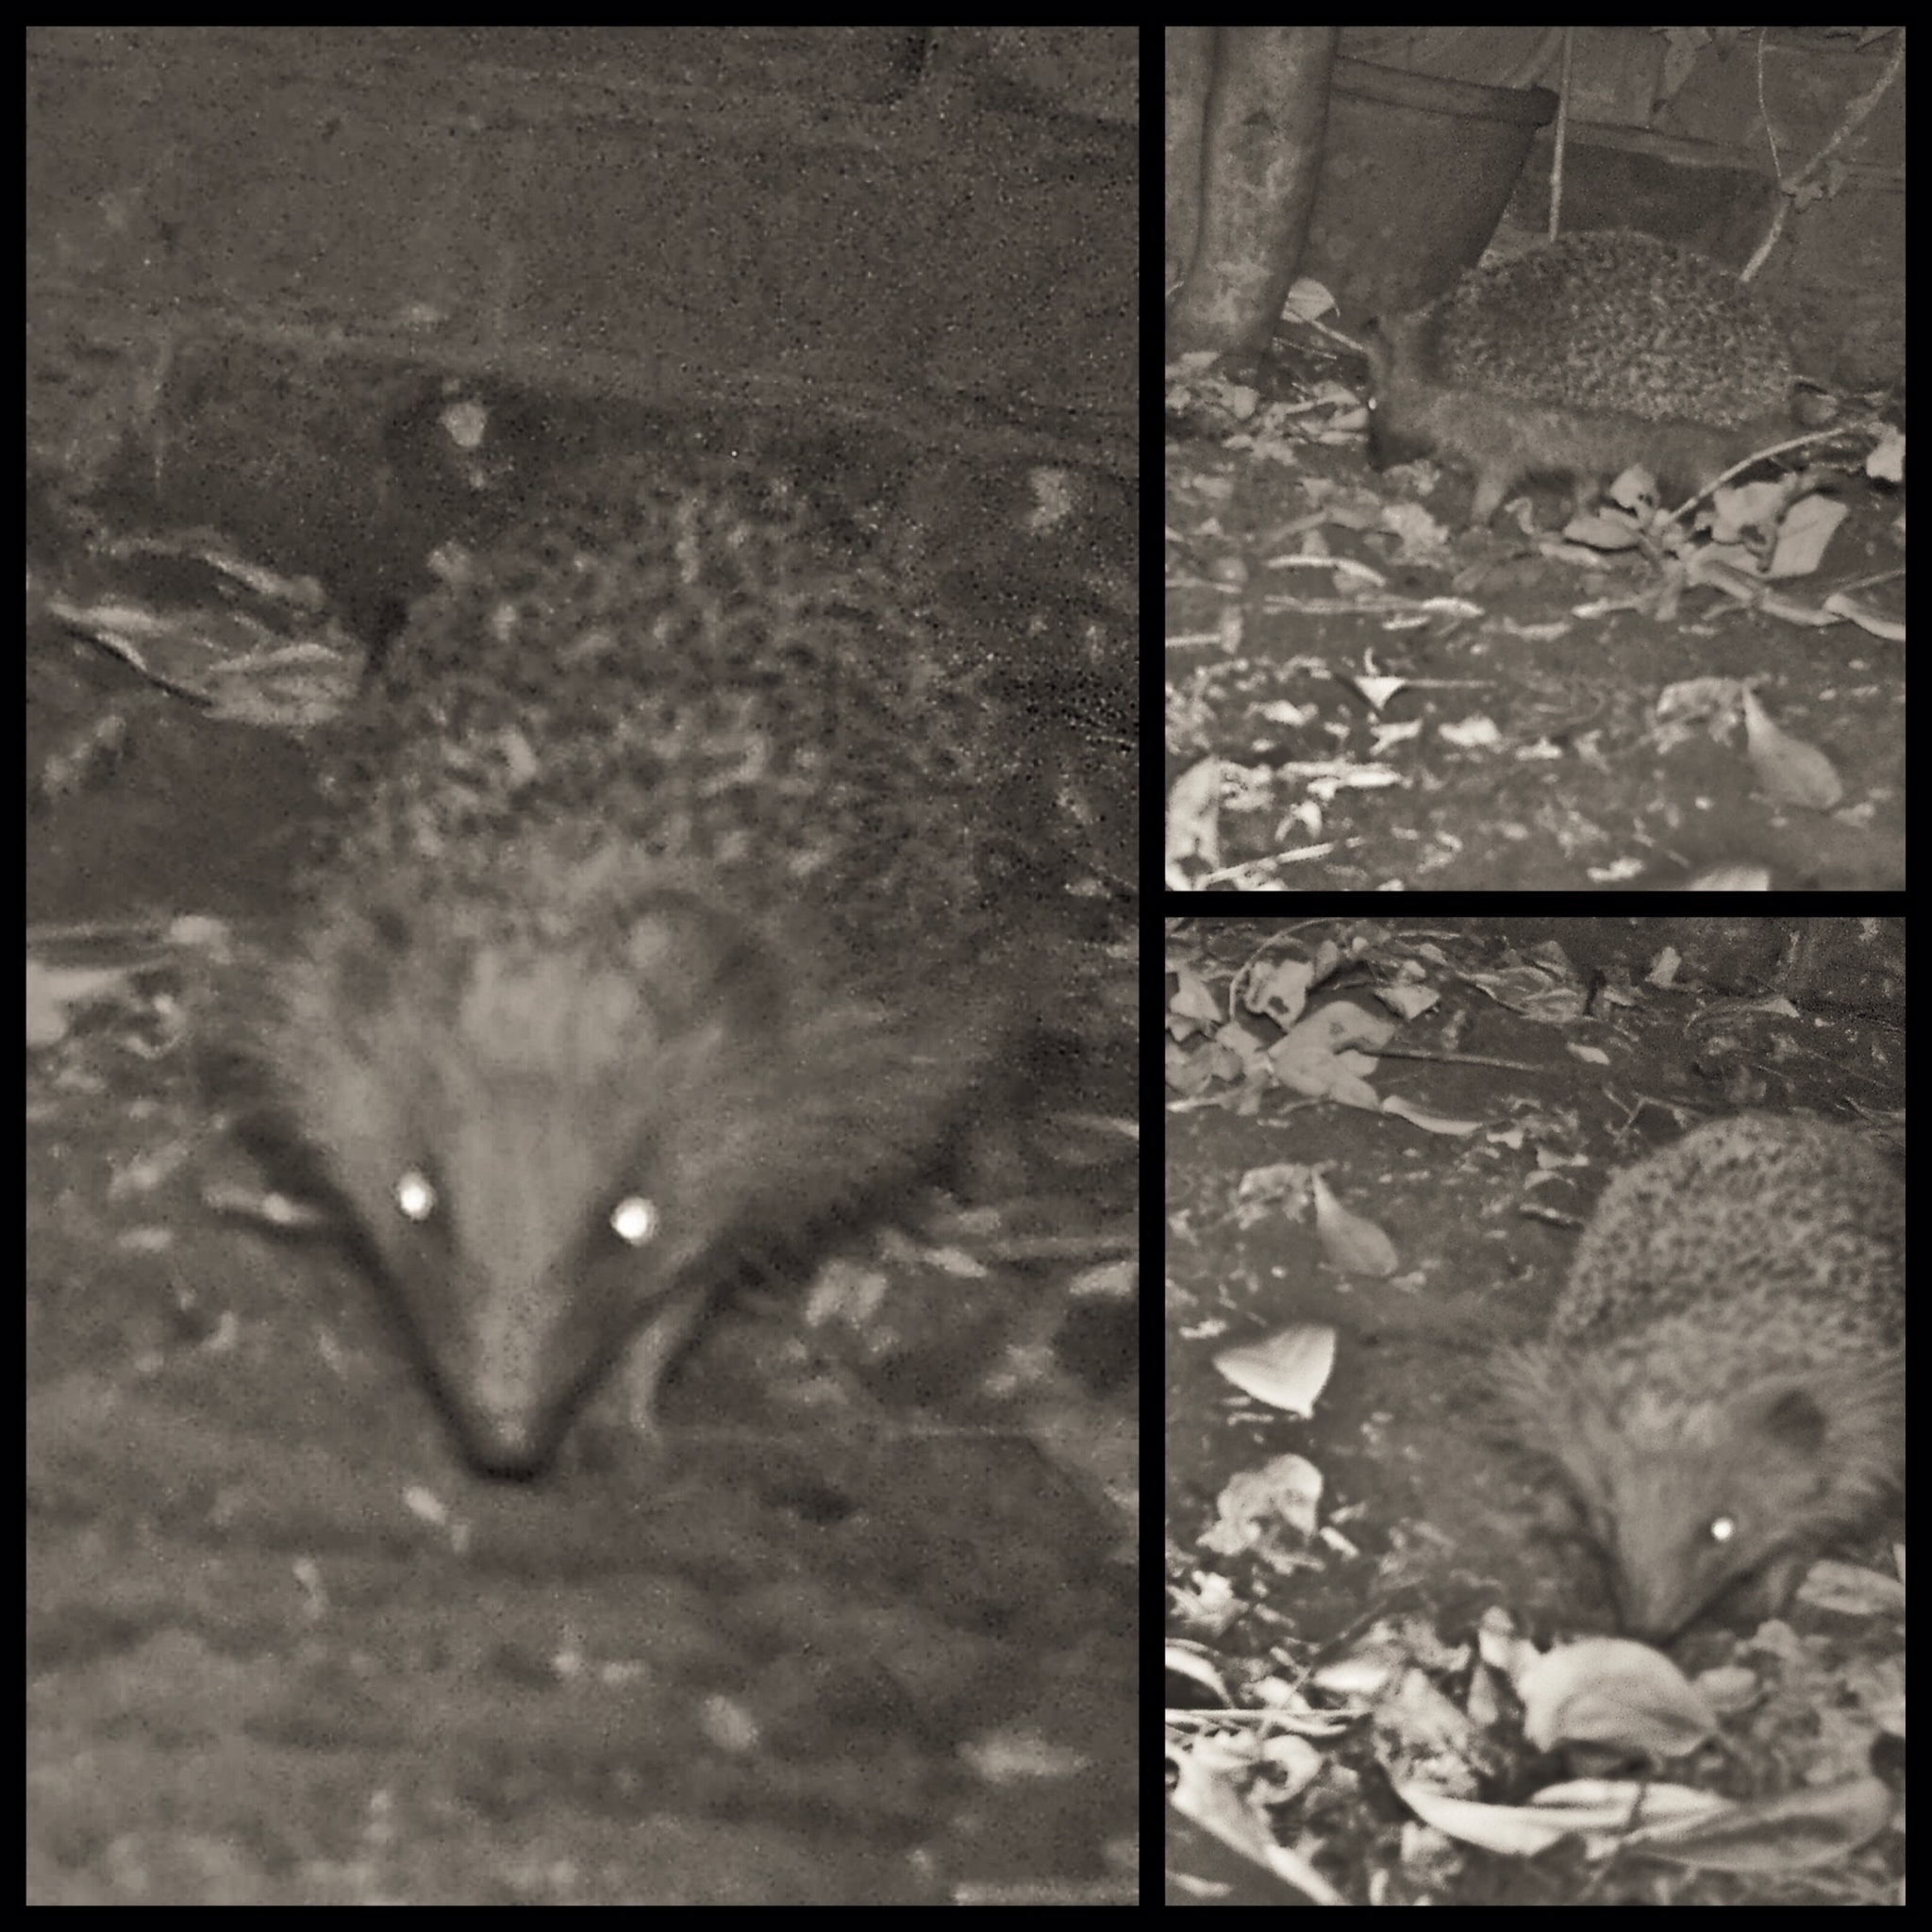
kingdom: Animalia
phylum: Chordata
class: Mammalia
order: Erinaceomorpha
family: Erinaceidae
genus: Erinaceus
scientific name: Erinaceus europaeus
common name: West european hedgehog
